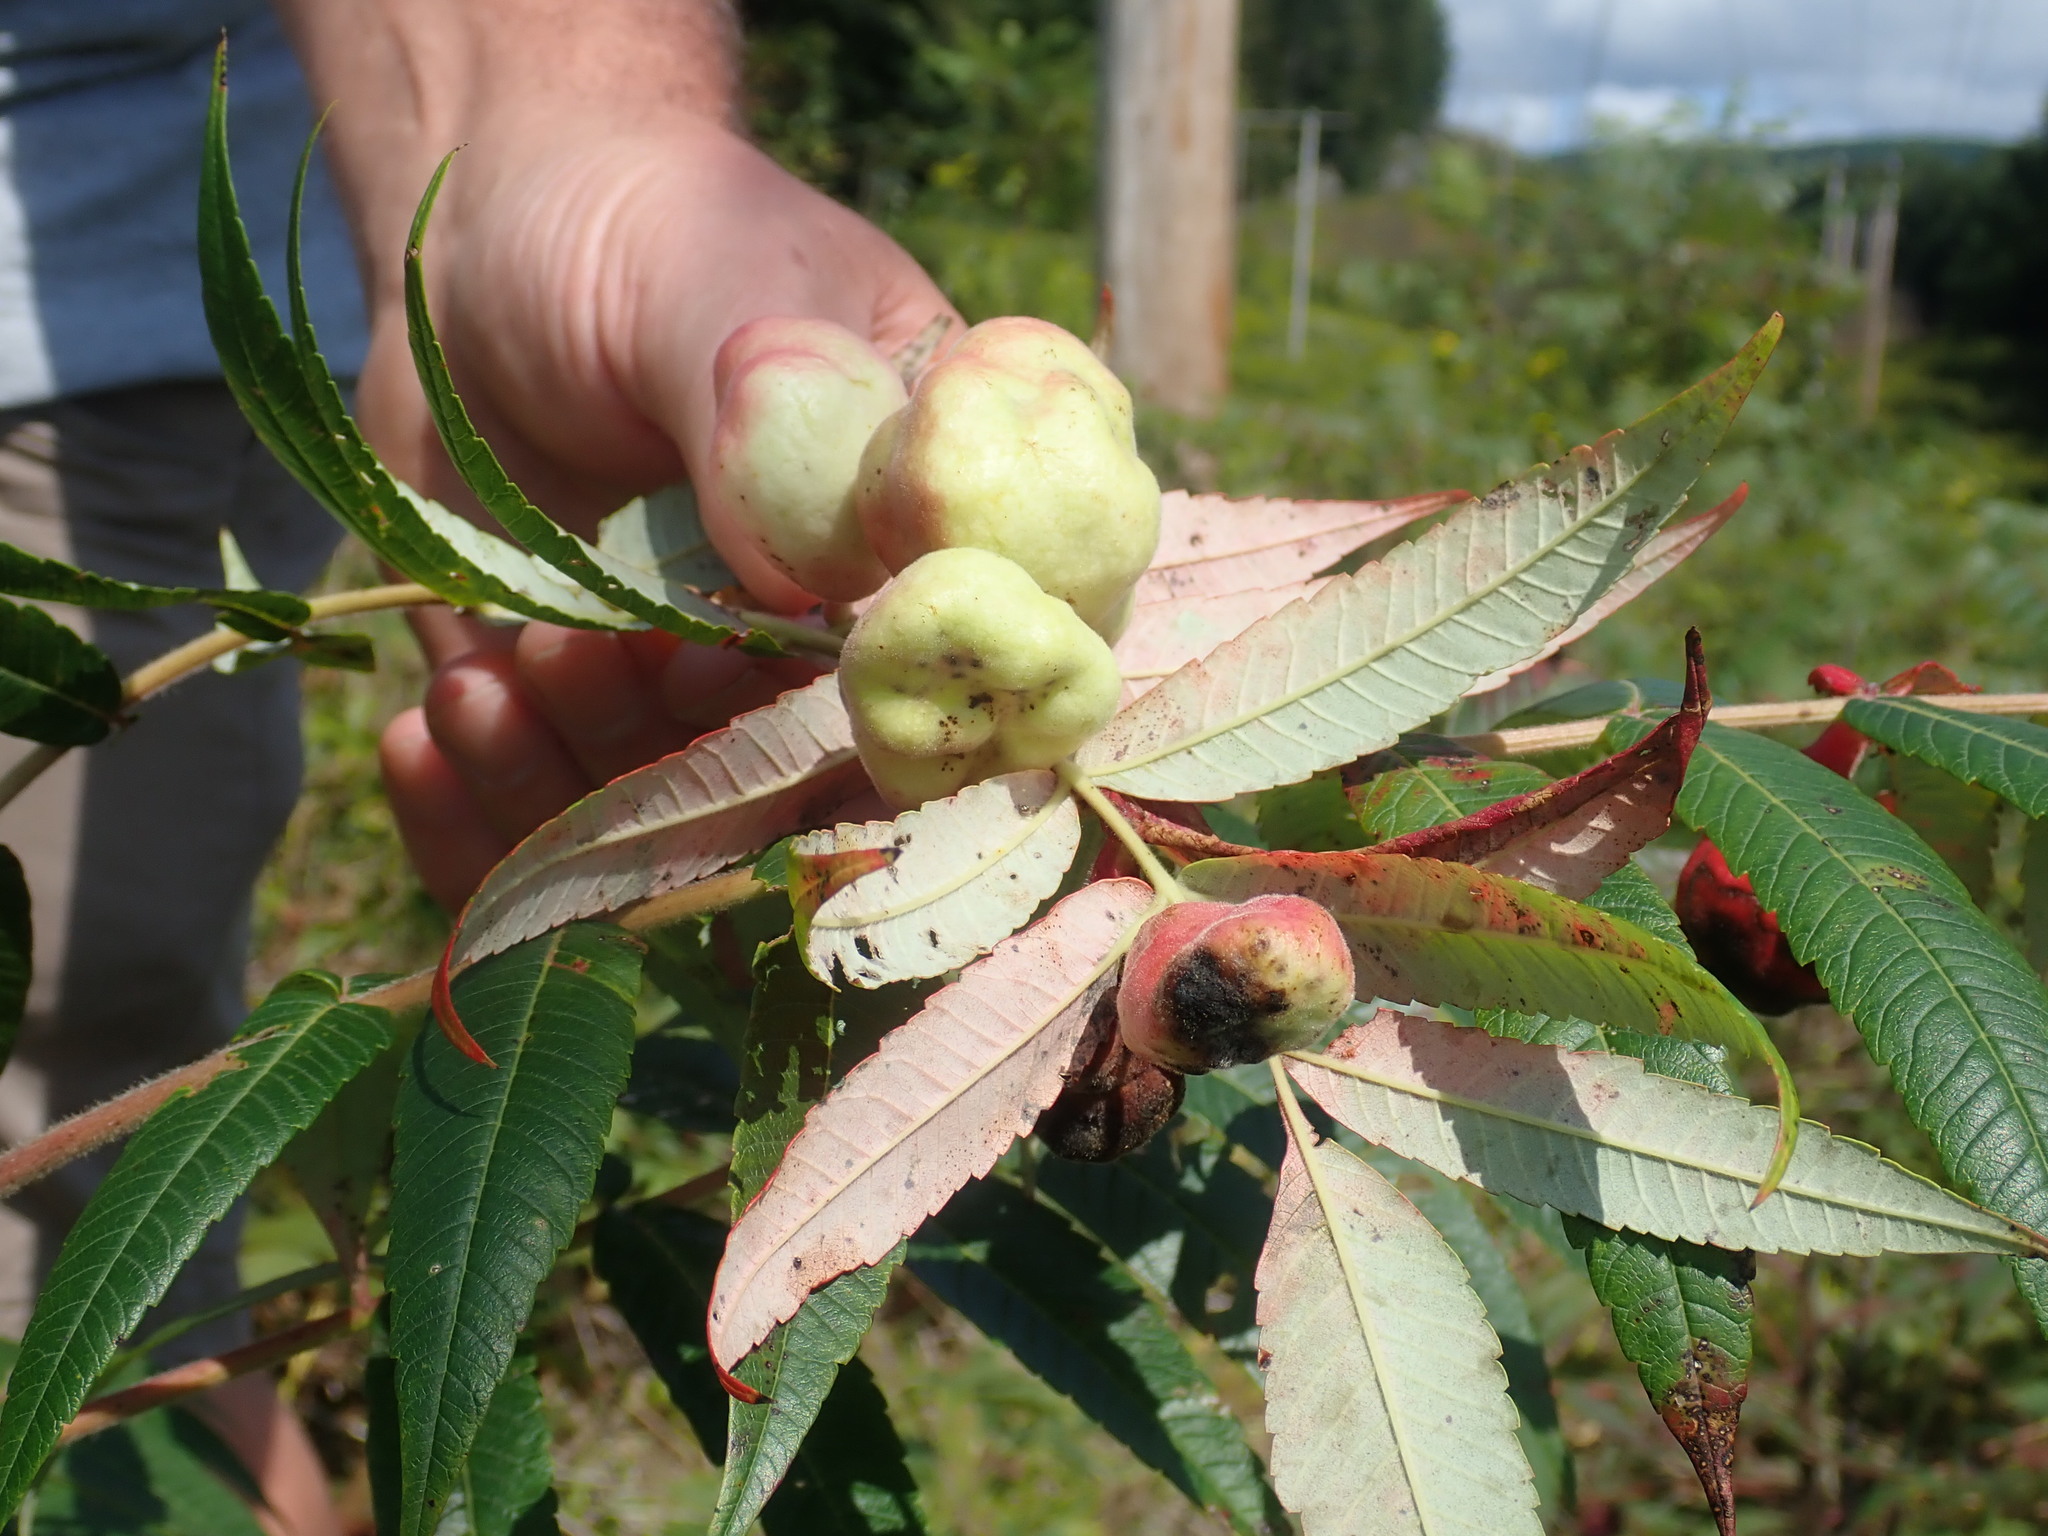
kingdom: Animalia
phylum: Arthropoda
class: Insecta
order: Hemiptera
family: Aphididae
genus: Melaphis
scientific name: Melaphis rhois
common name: Sumac gall aphid
